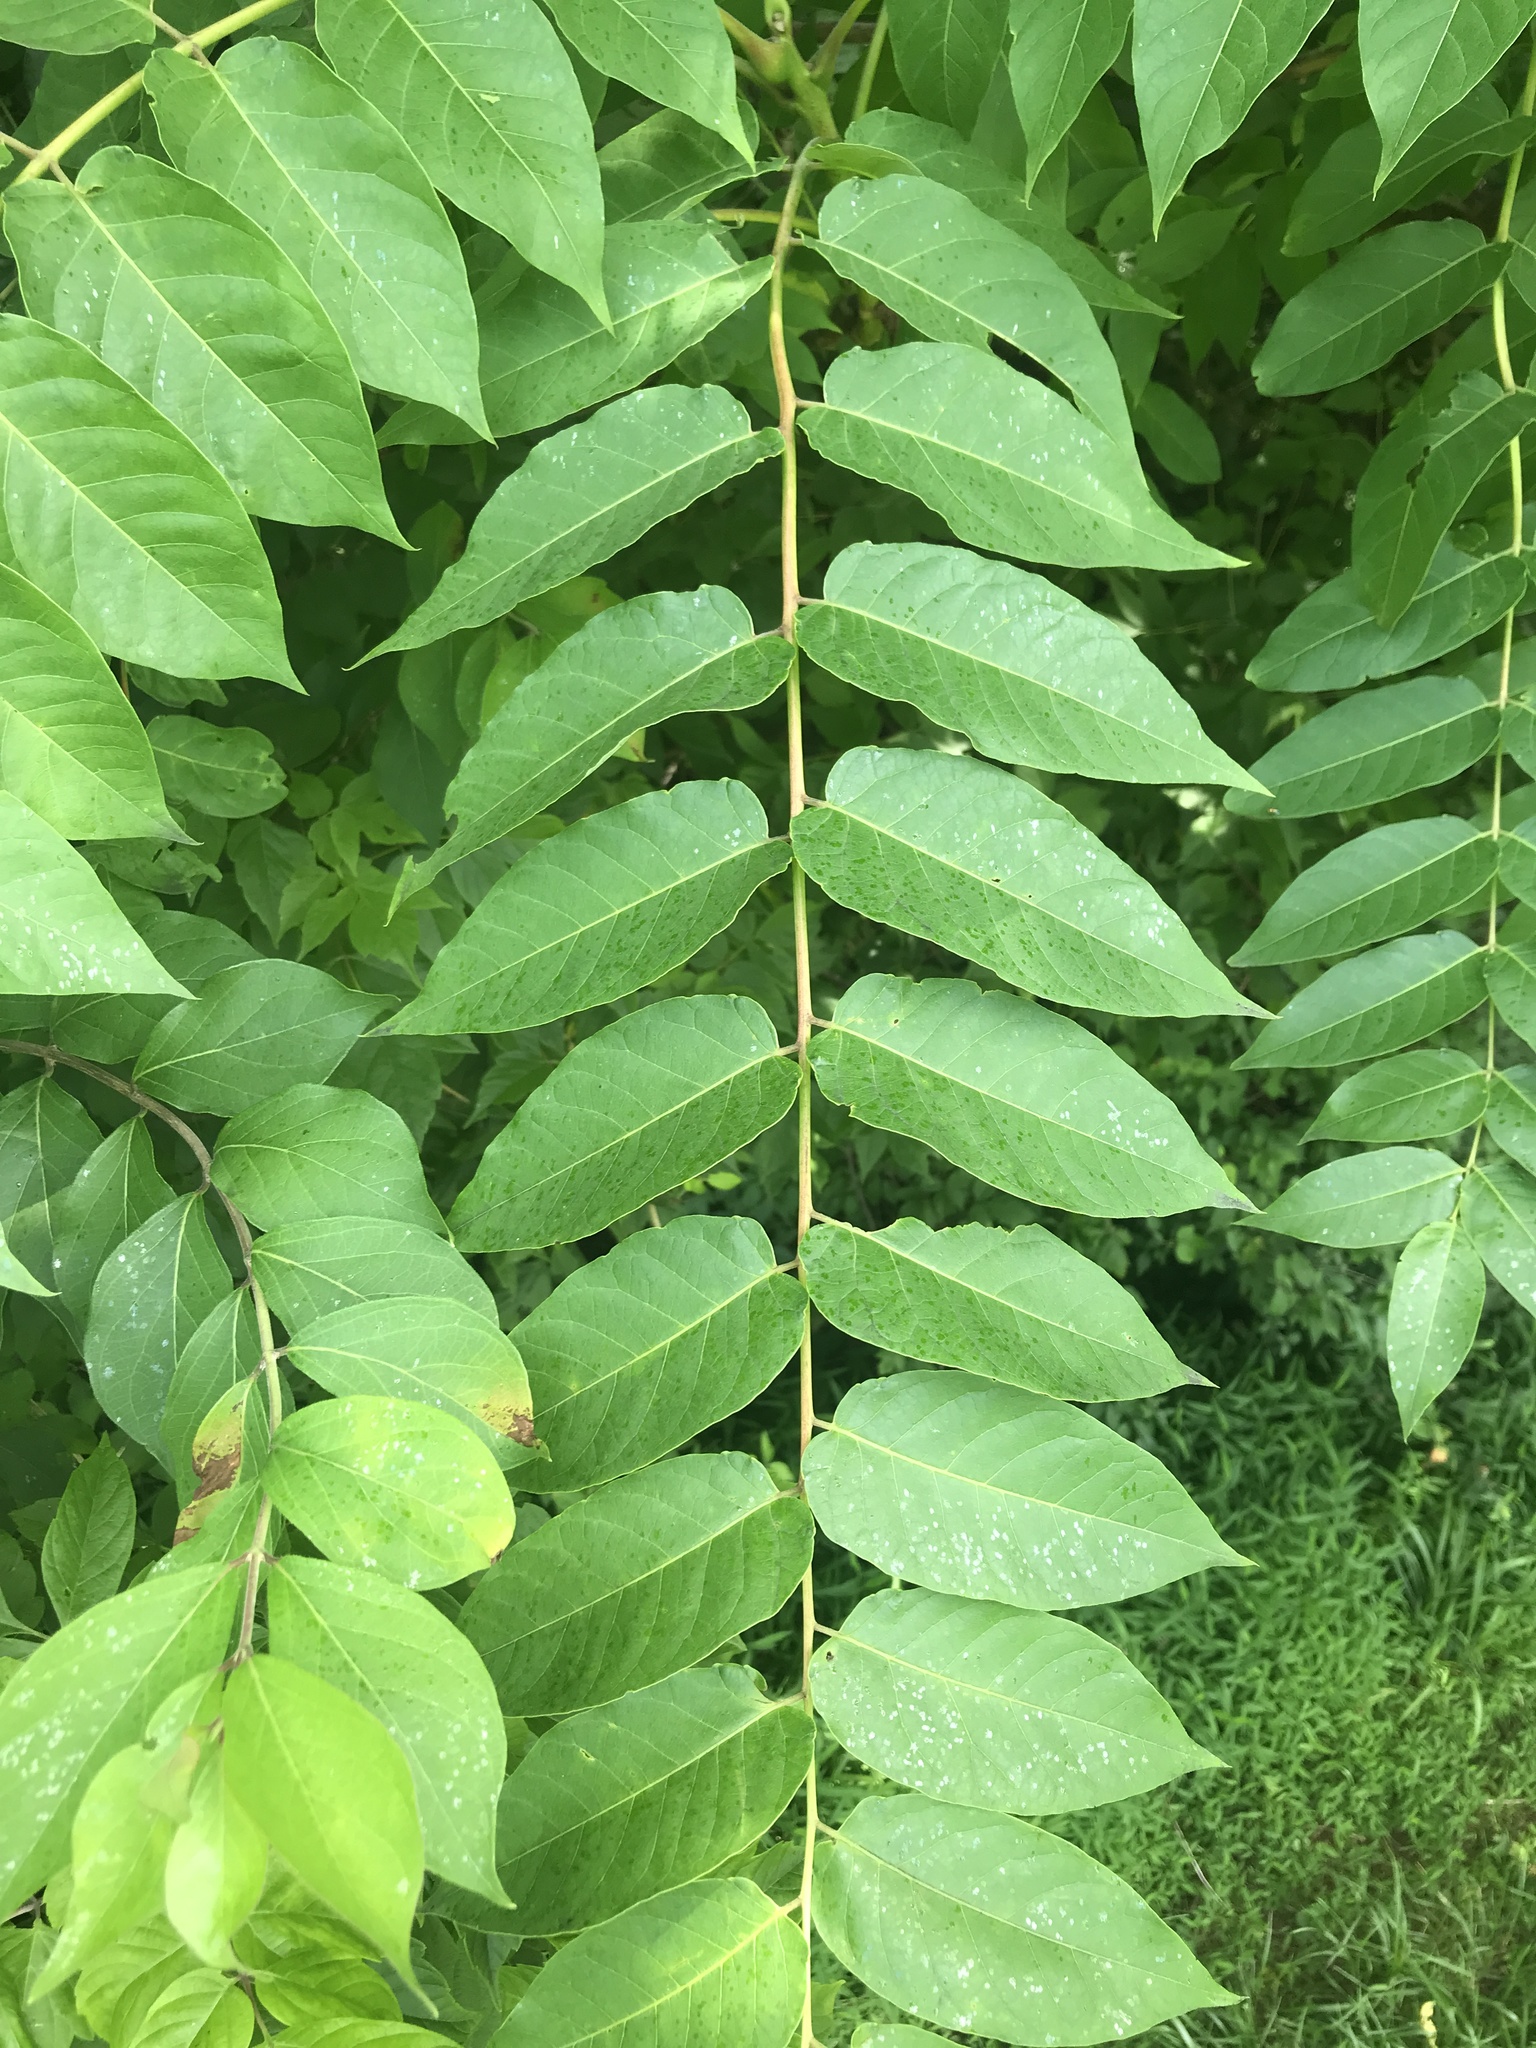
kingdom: Plantae
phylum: Tracheophyta
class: Magnoliopsida
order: Sapindales
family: Simaroubaceae
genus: Ailanthus
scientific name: Ailanthus altissima
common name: Tree-of-heaven
